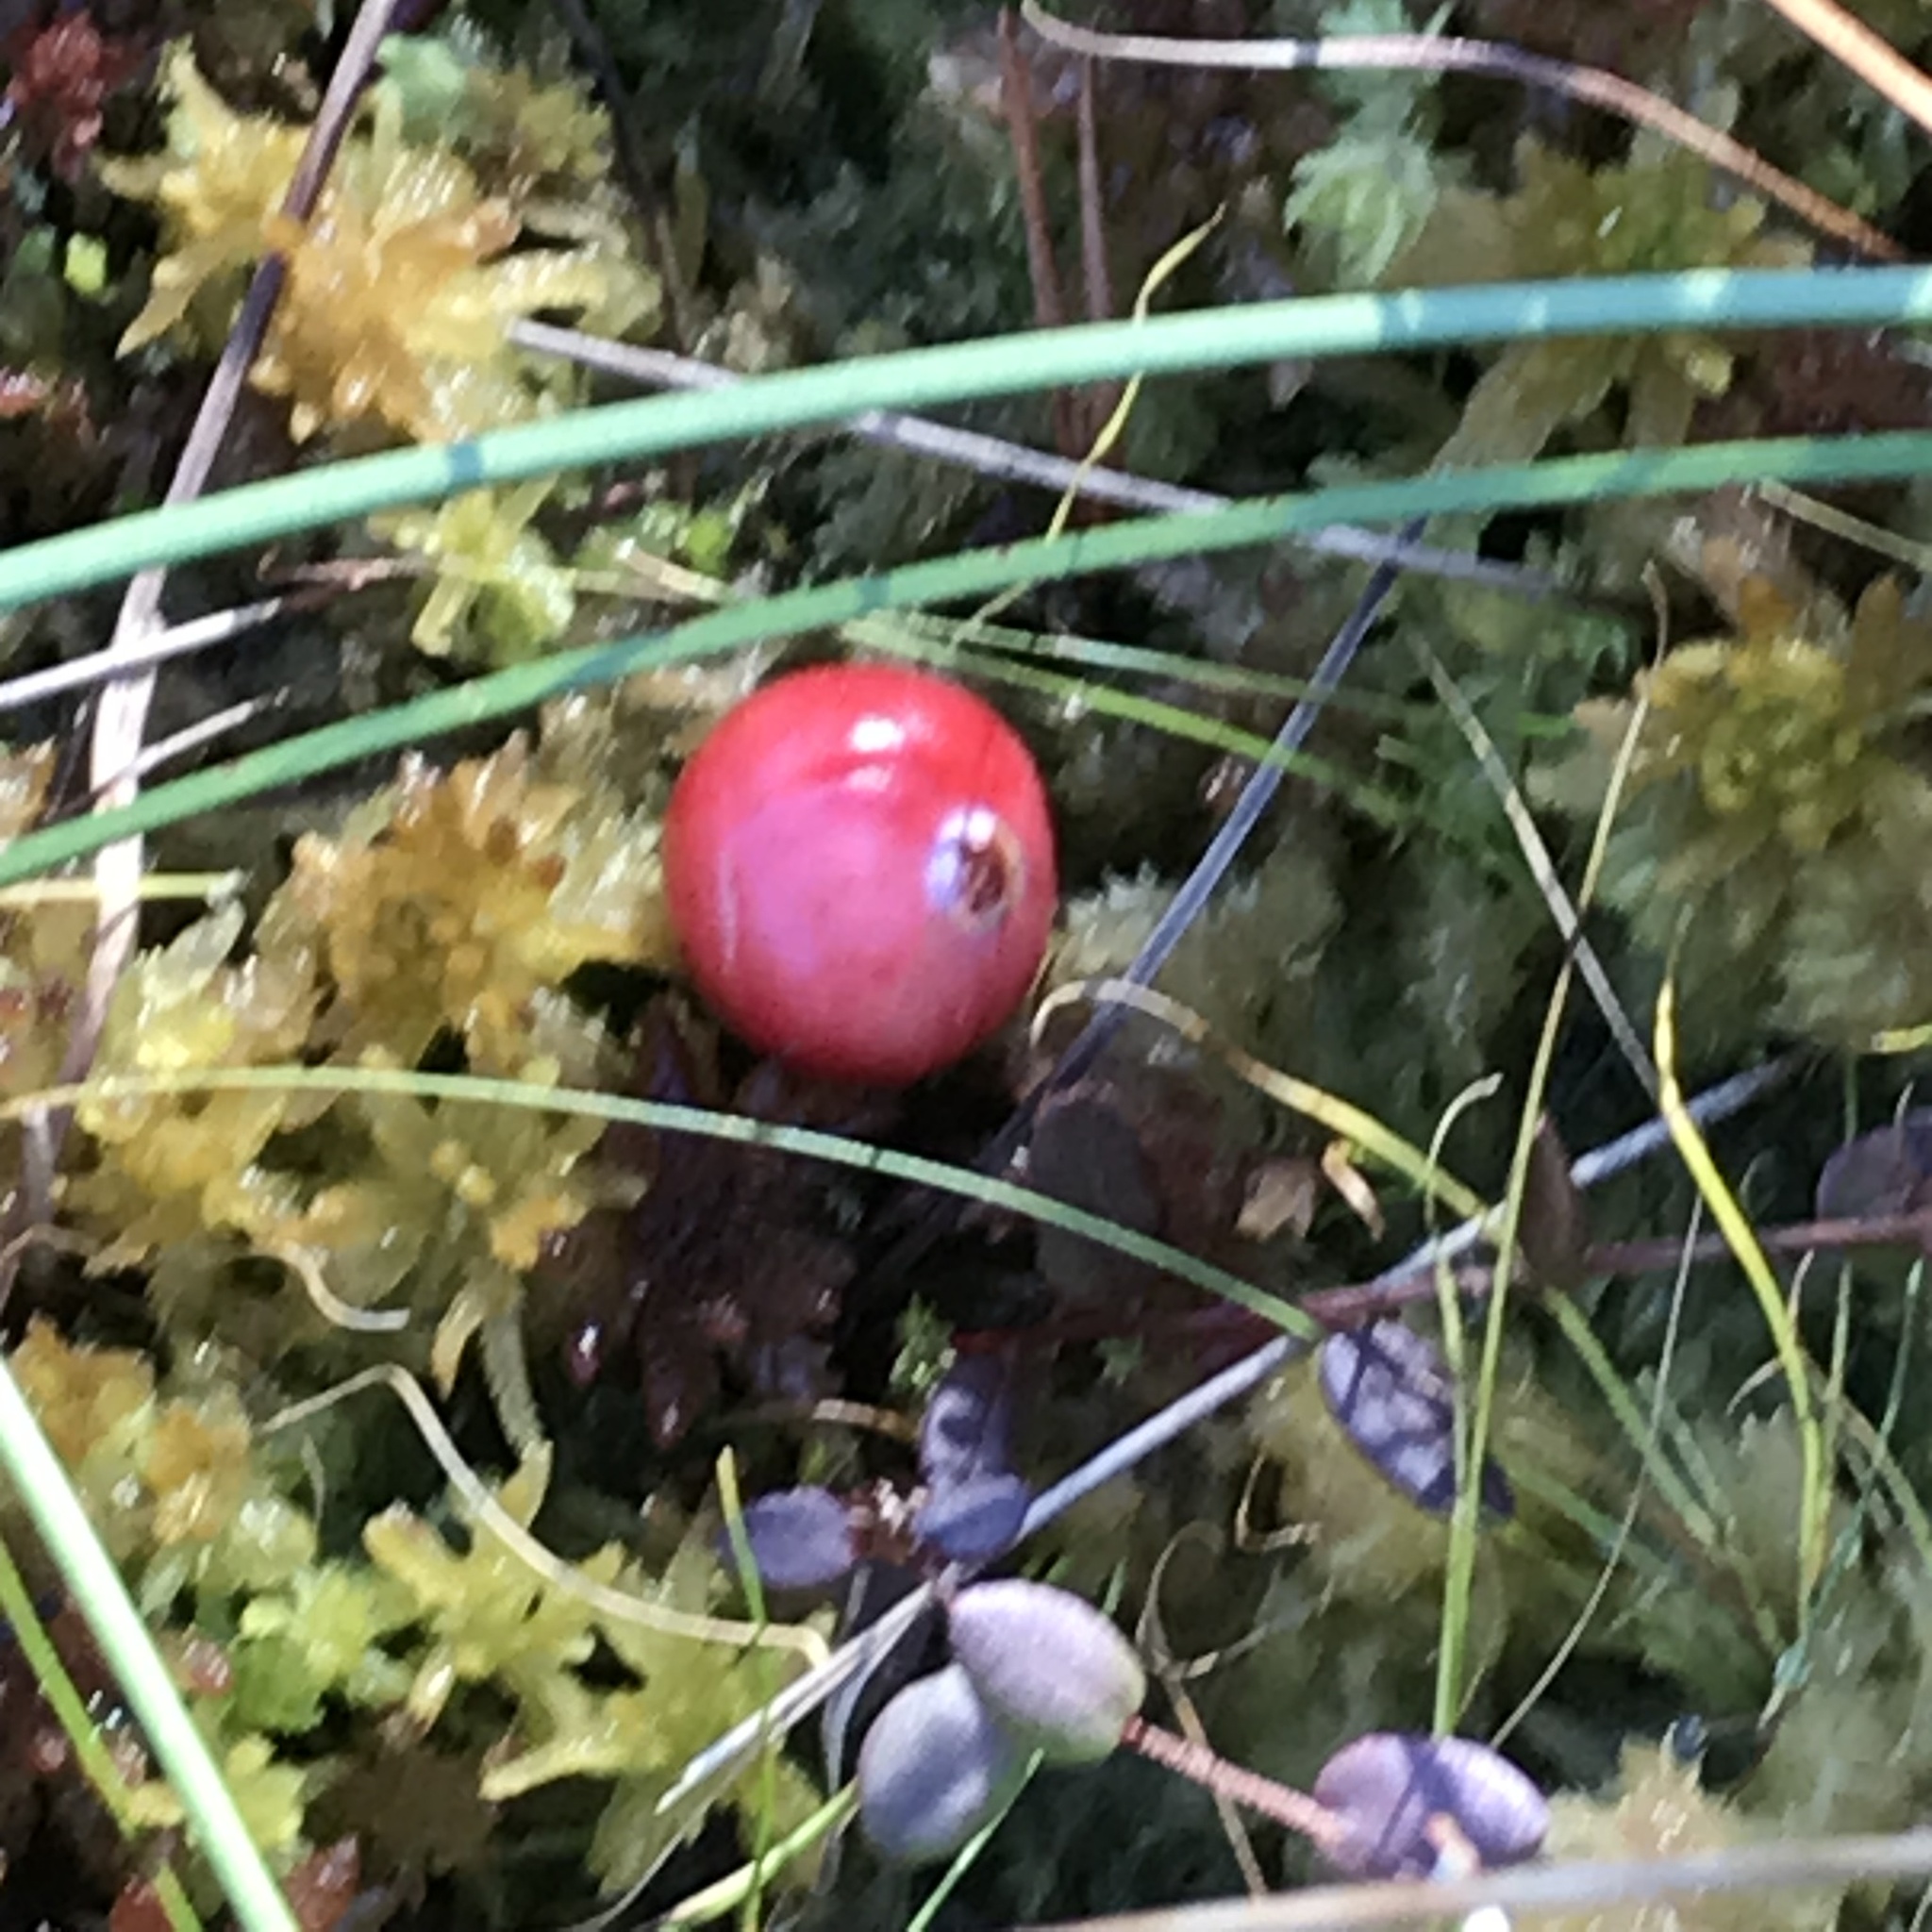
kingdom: Plantae
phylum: Tracheophyta
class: Magnoliopsida
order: Ericales
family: Ericaceae
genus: Vaccinium
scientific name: Vaccinium oxycoccos
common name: Cranberry
